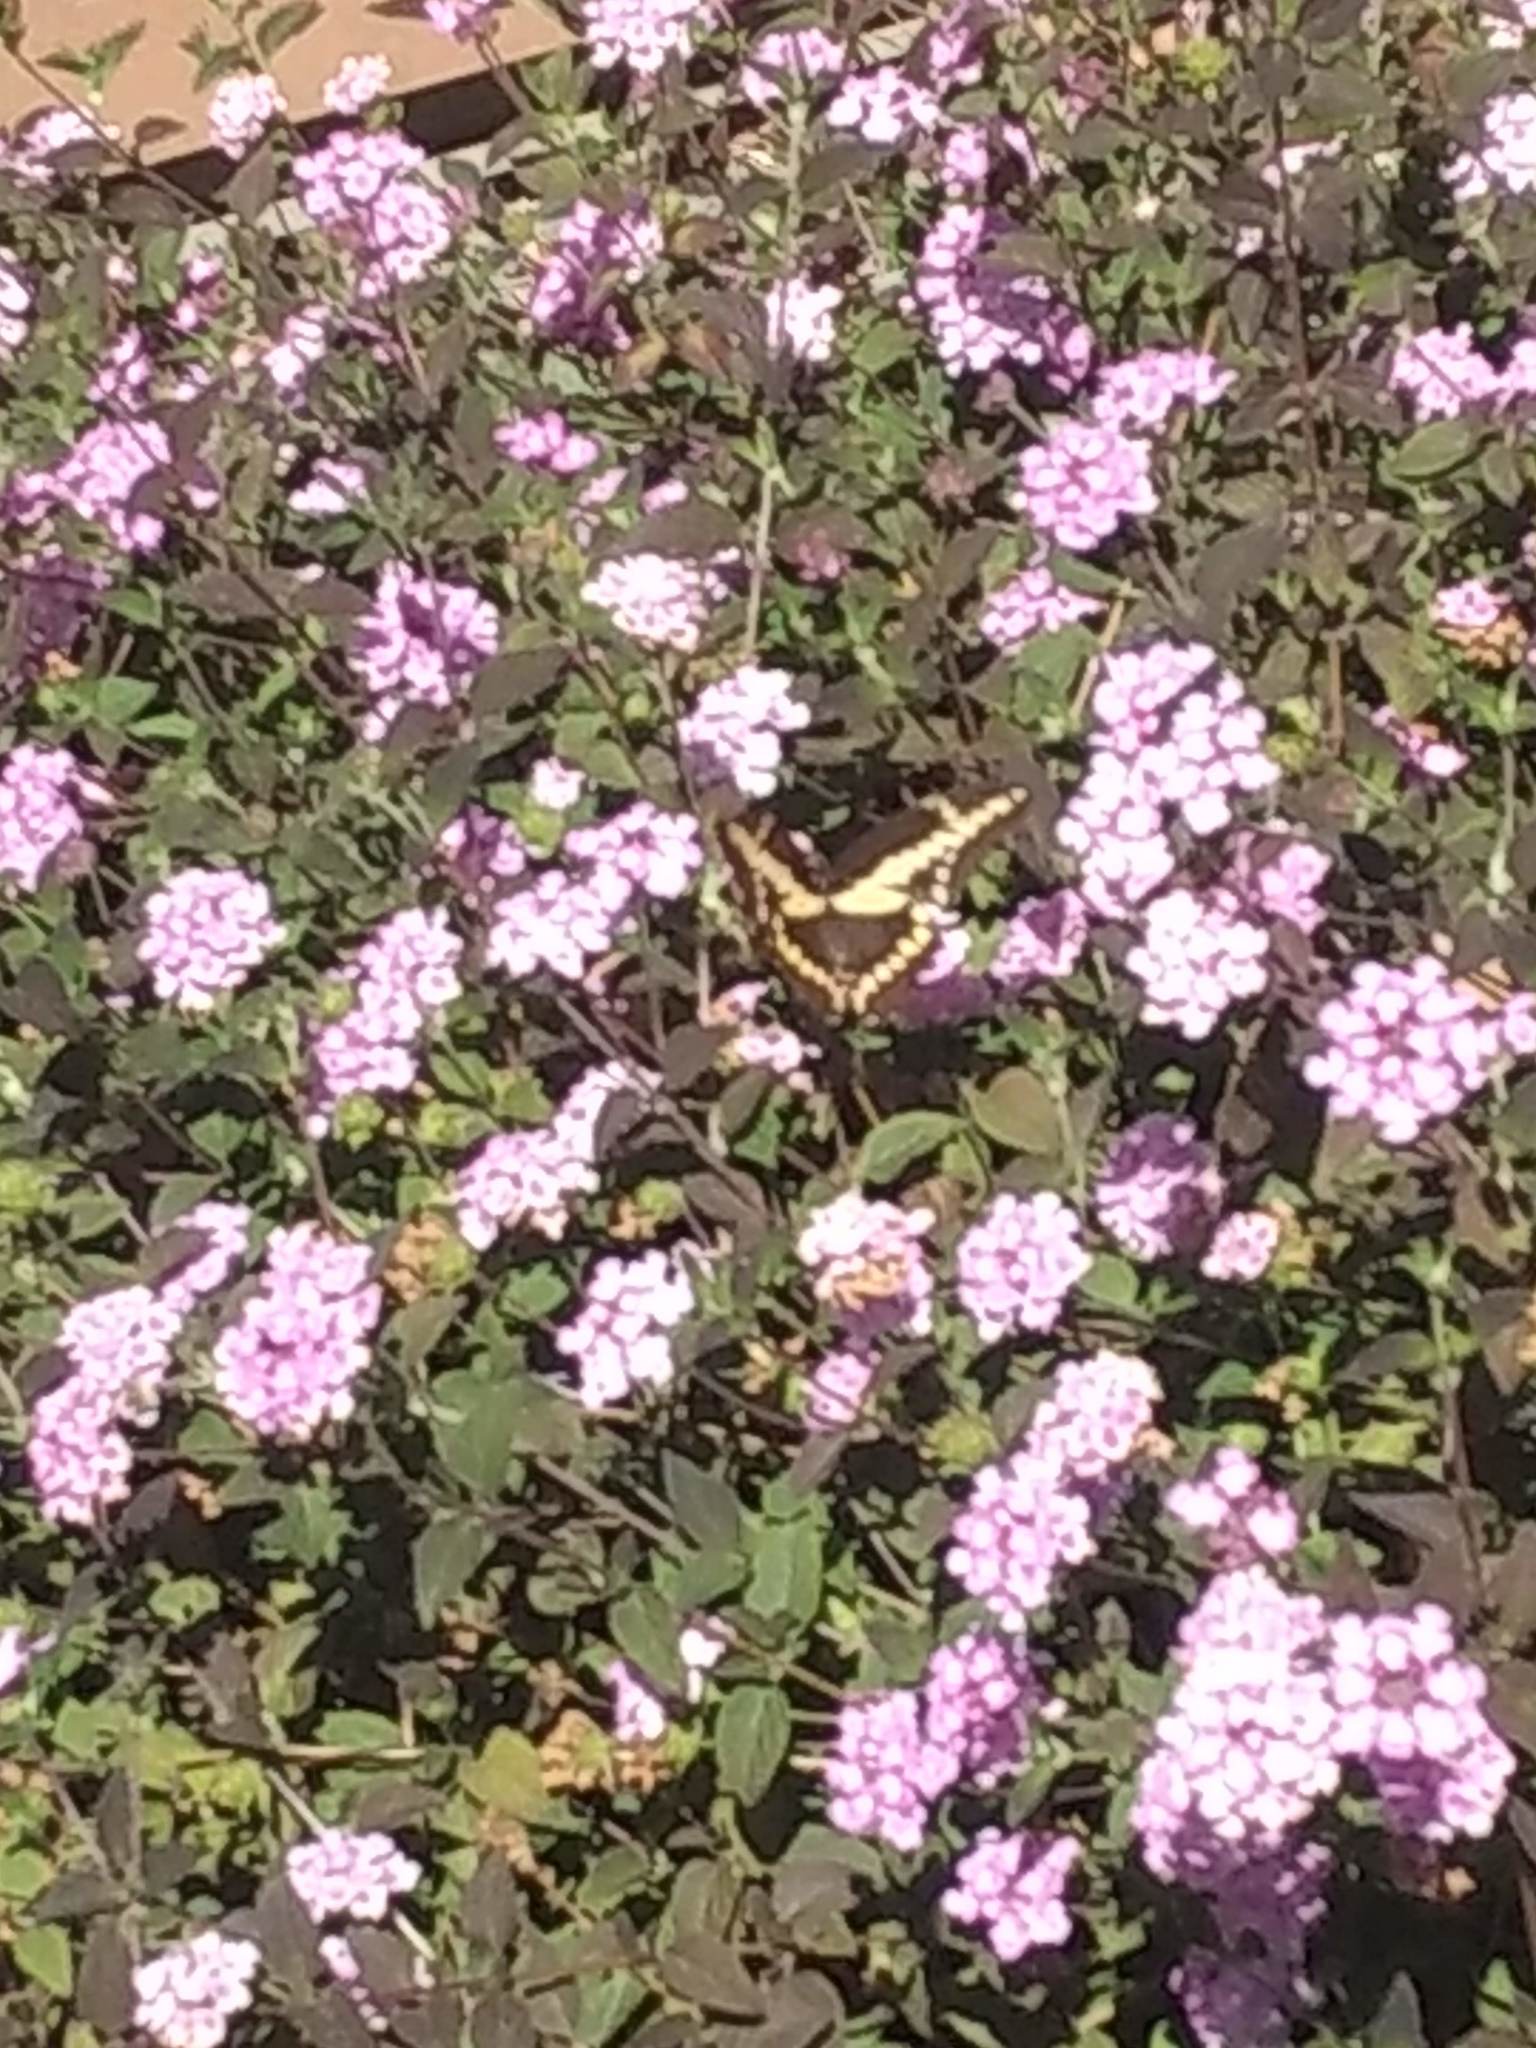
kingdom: Animalia
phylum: Arthropoda
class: Insecta
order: Lepidoptera
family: Papilionidae
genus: Papilio
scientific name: Papilio rumiko
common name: Western giant swallowtail
